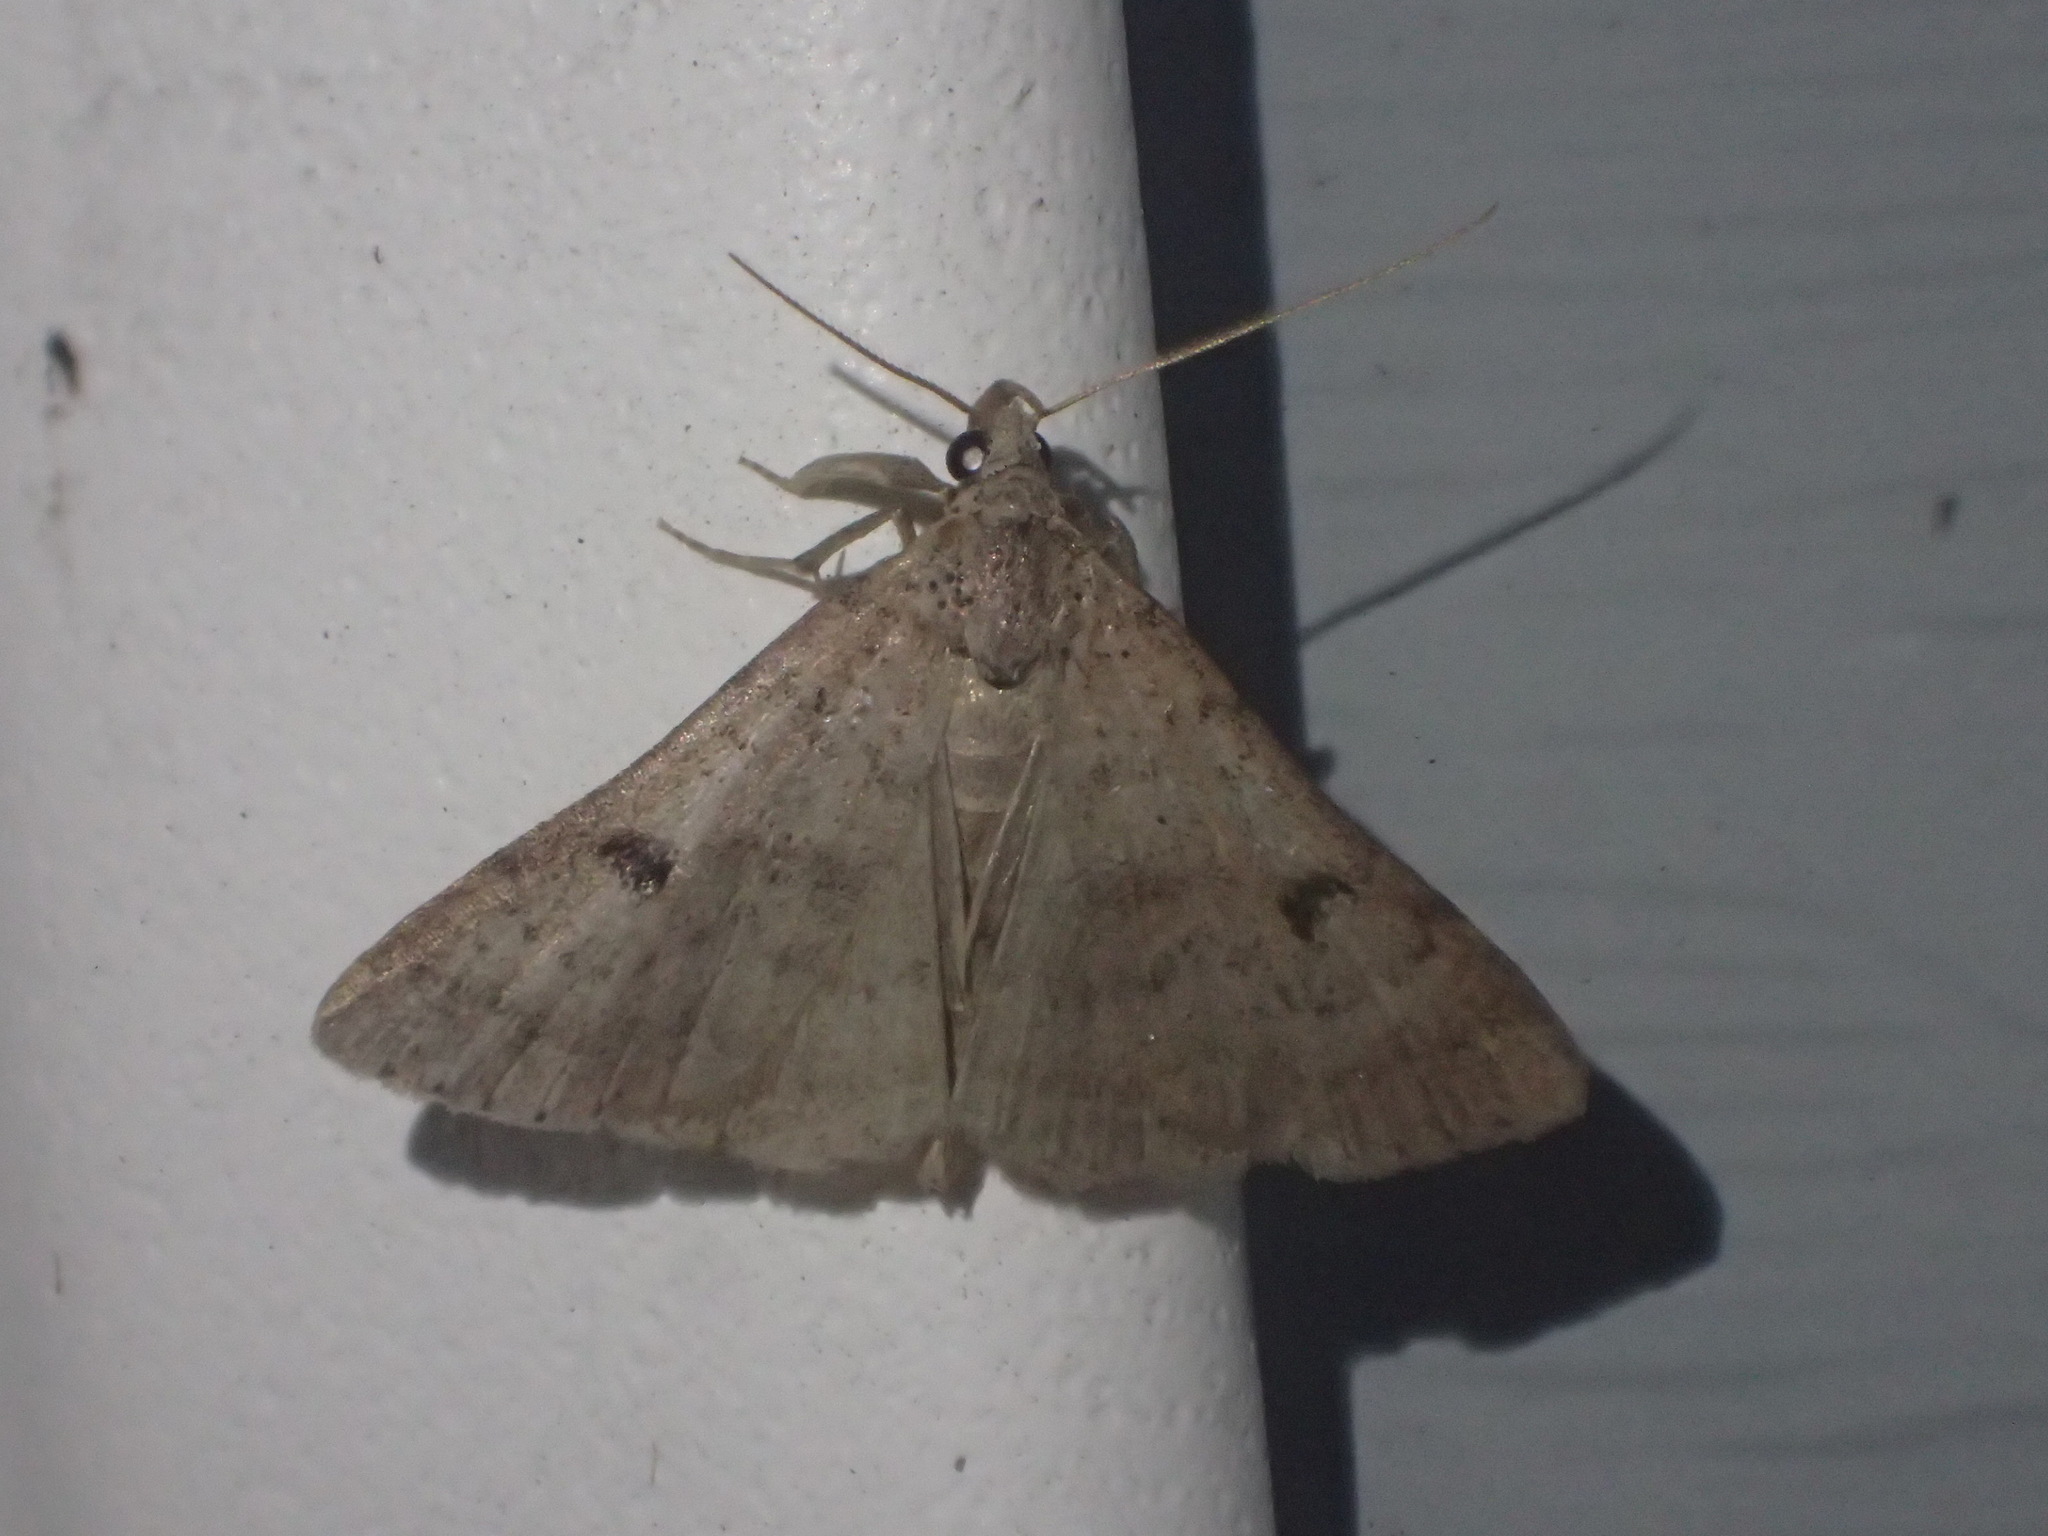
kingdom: Animalia
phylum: Arthropoda
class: Insecta
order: Lepidoptera
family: Erebidae
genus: Bleptina
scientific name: Bleptina caradrinalis
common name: Bent-winged owlet
